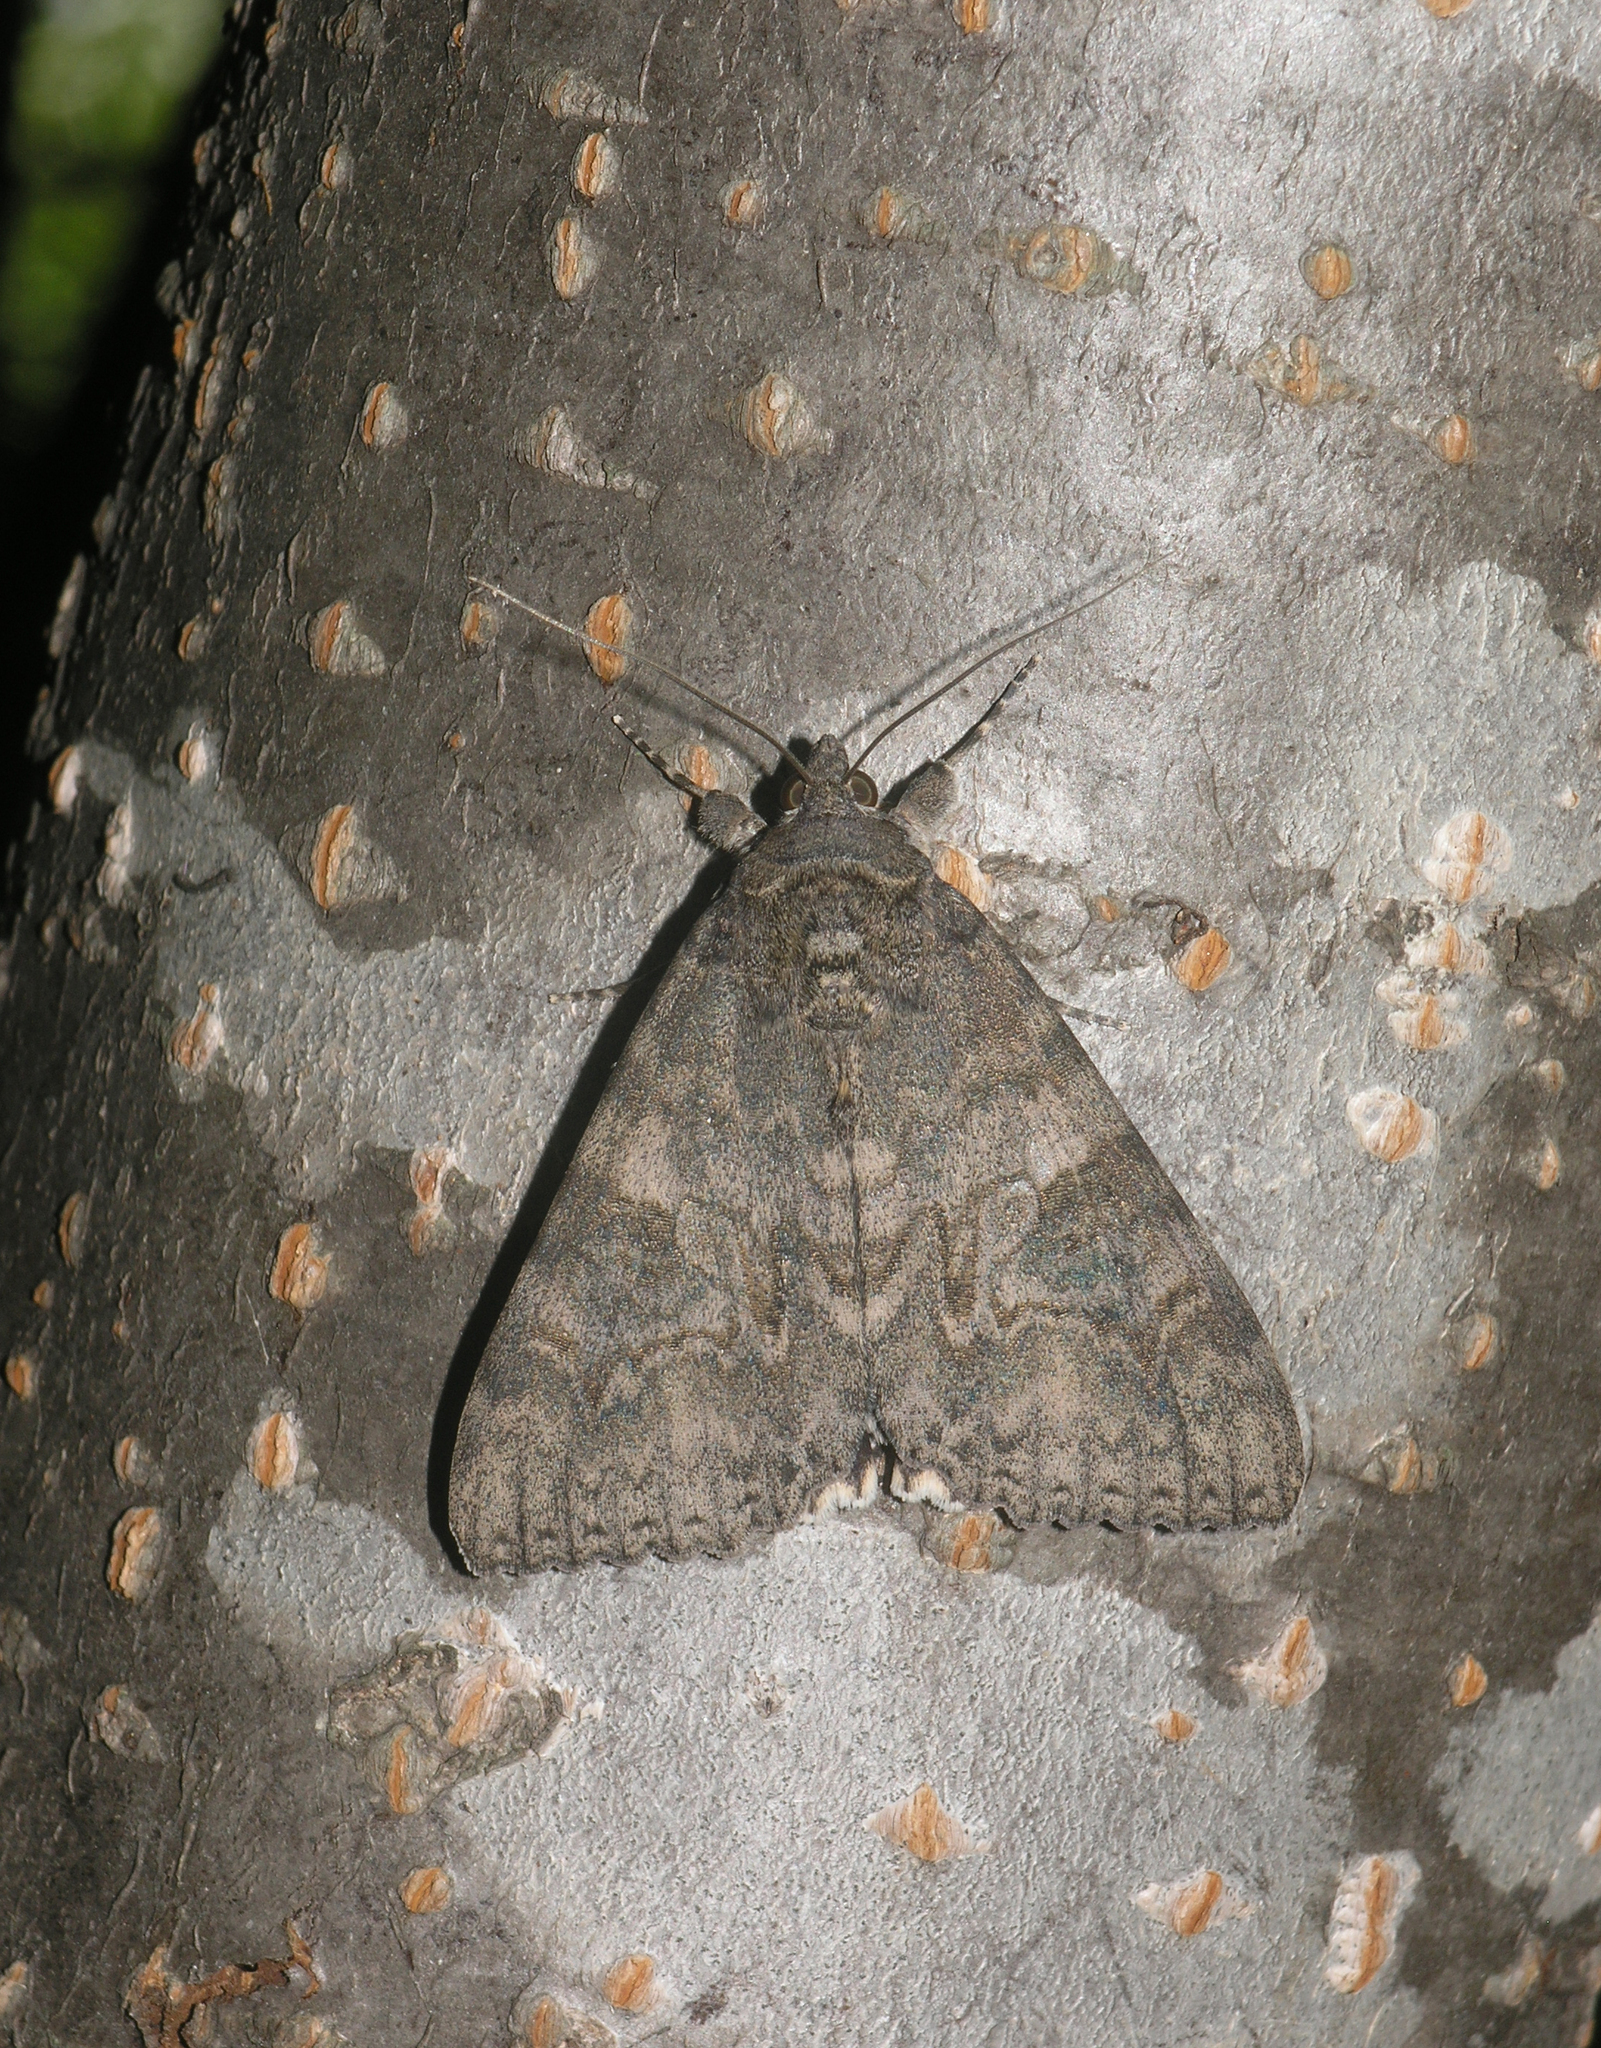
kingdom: Animalia
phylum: Arthropoda
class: Insecta
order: Lepidoptera
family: Erebidae
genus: Catocala
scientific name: Catocala nupta
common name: Red underwing
